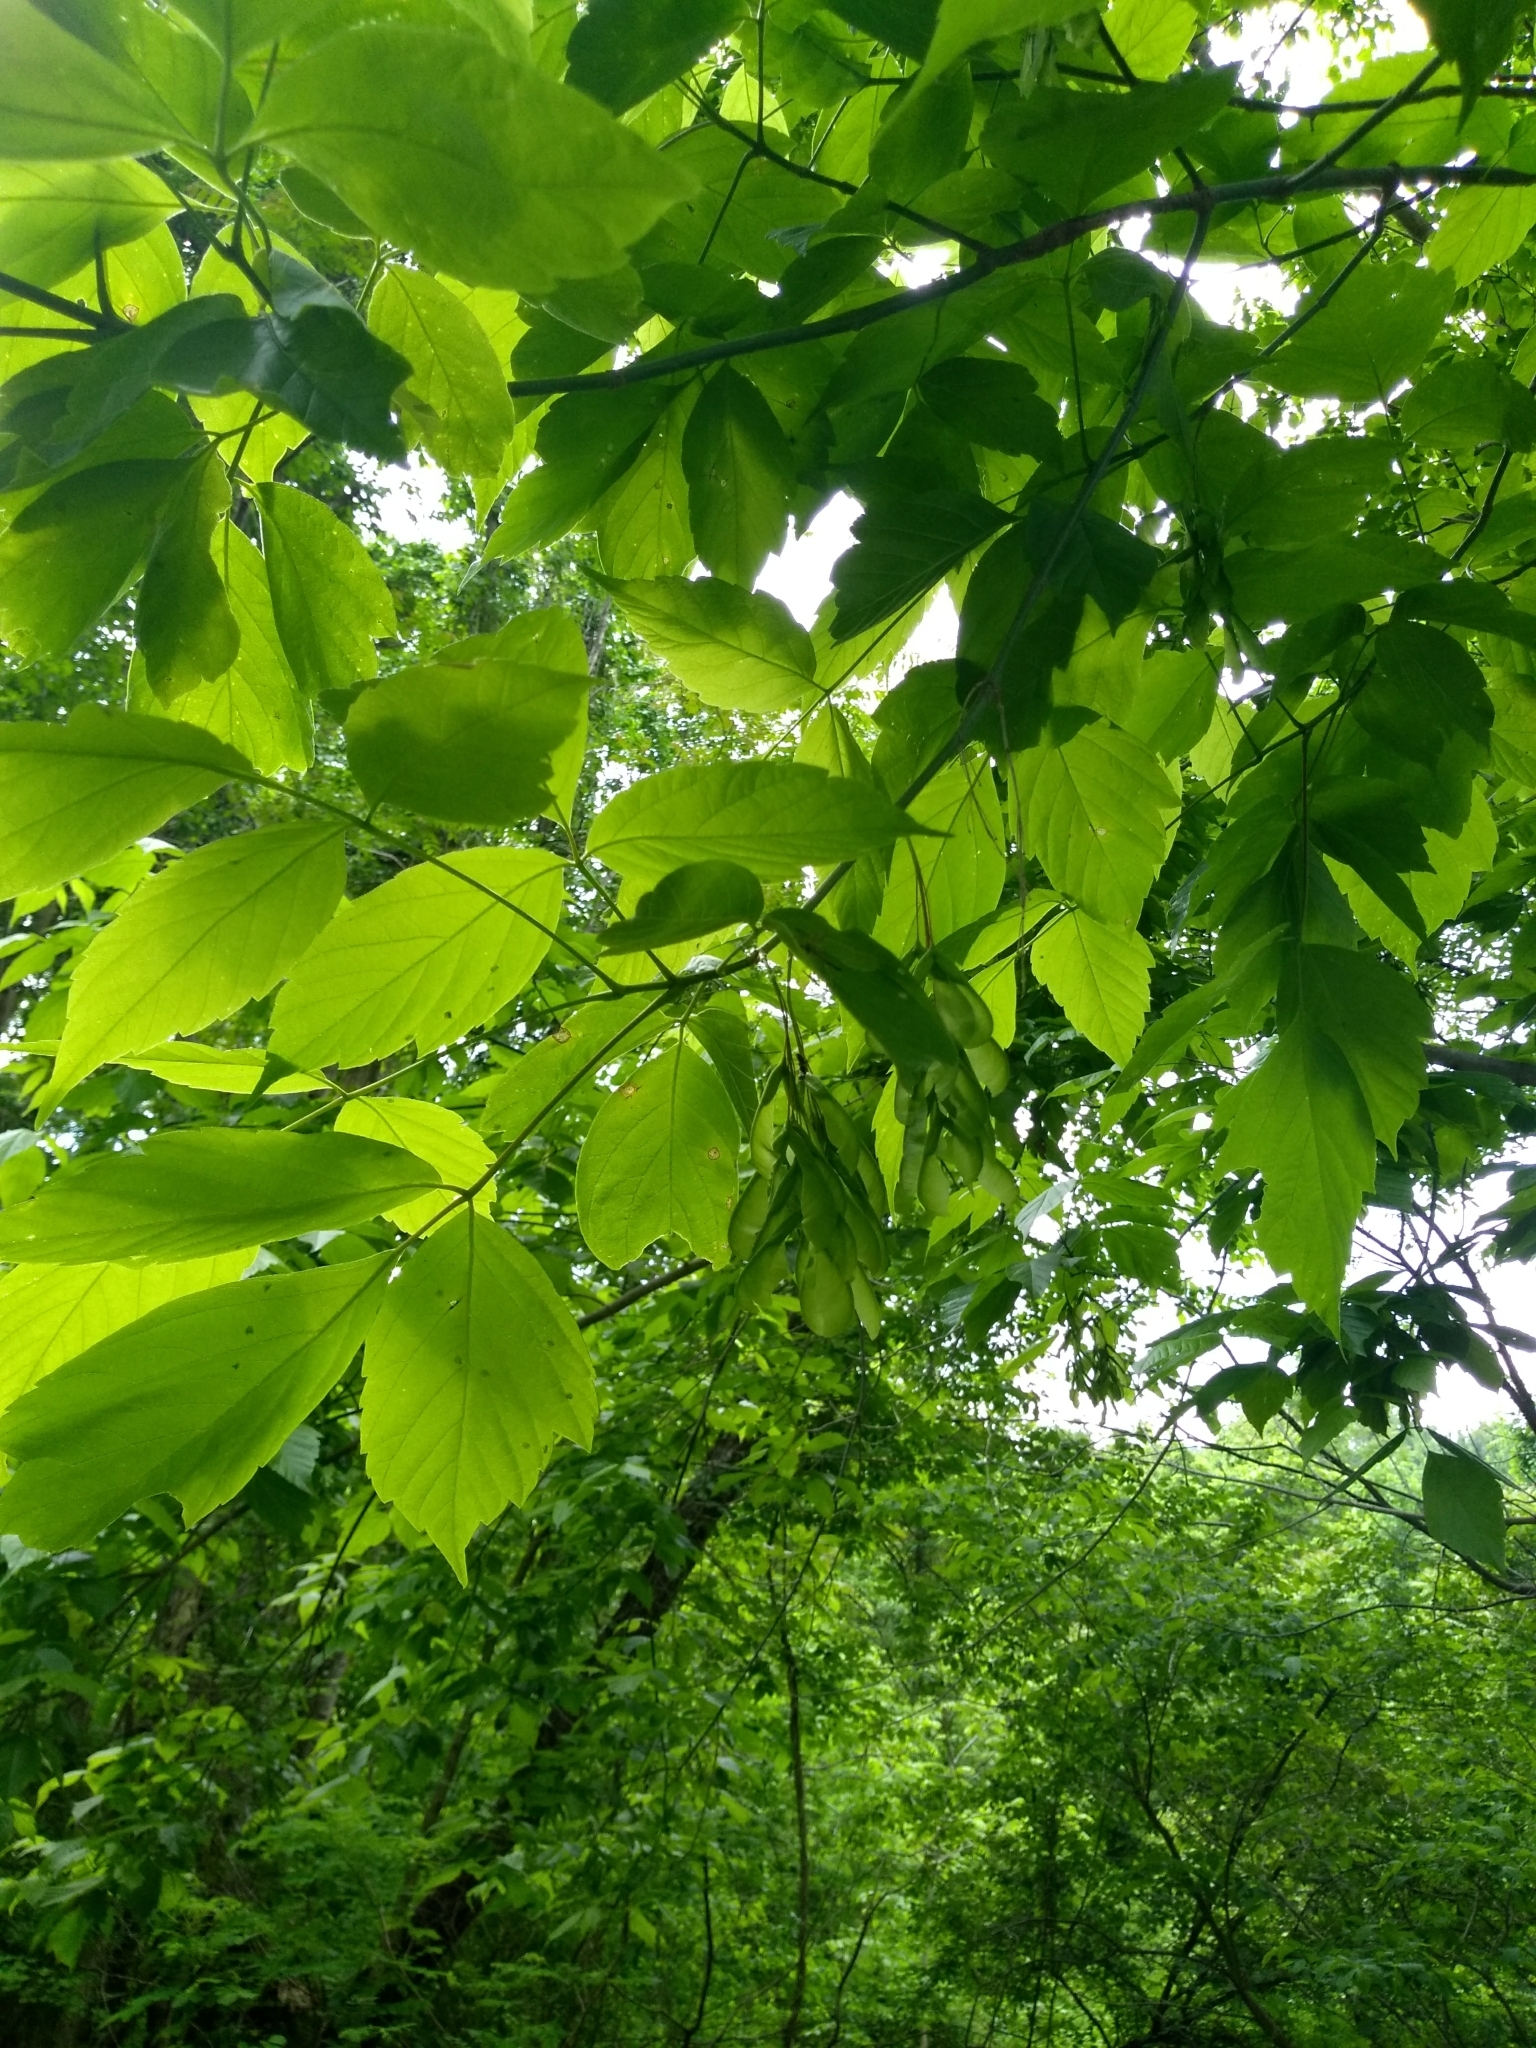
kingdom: Plantae
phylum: Tracheophyta
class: Magnoliopsida
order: Sapindales
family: Sapindaceae
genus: Acer
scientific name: Acer negundo
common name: Ashleaf maple
